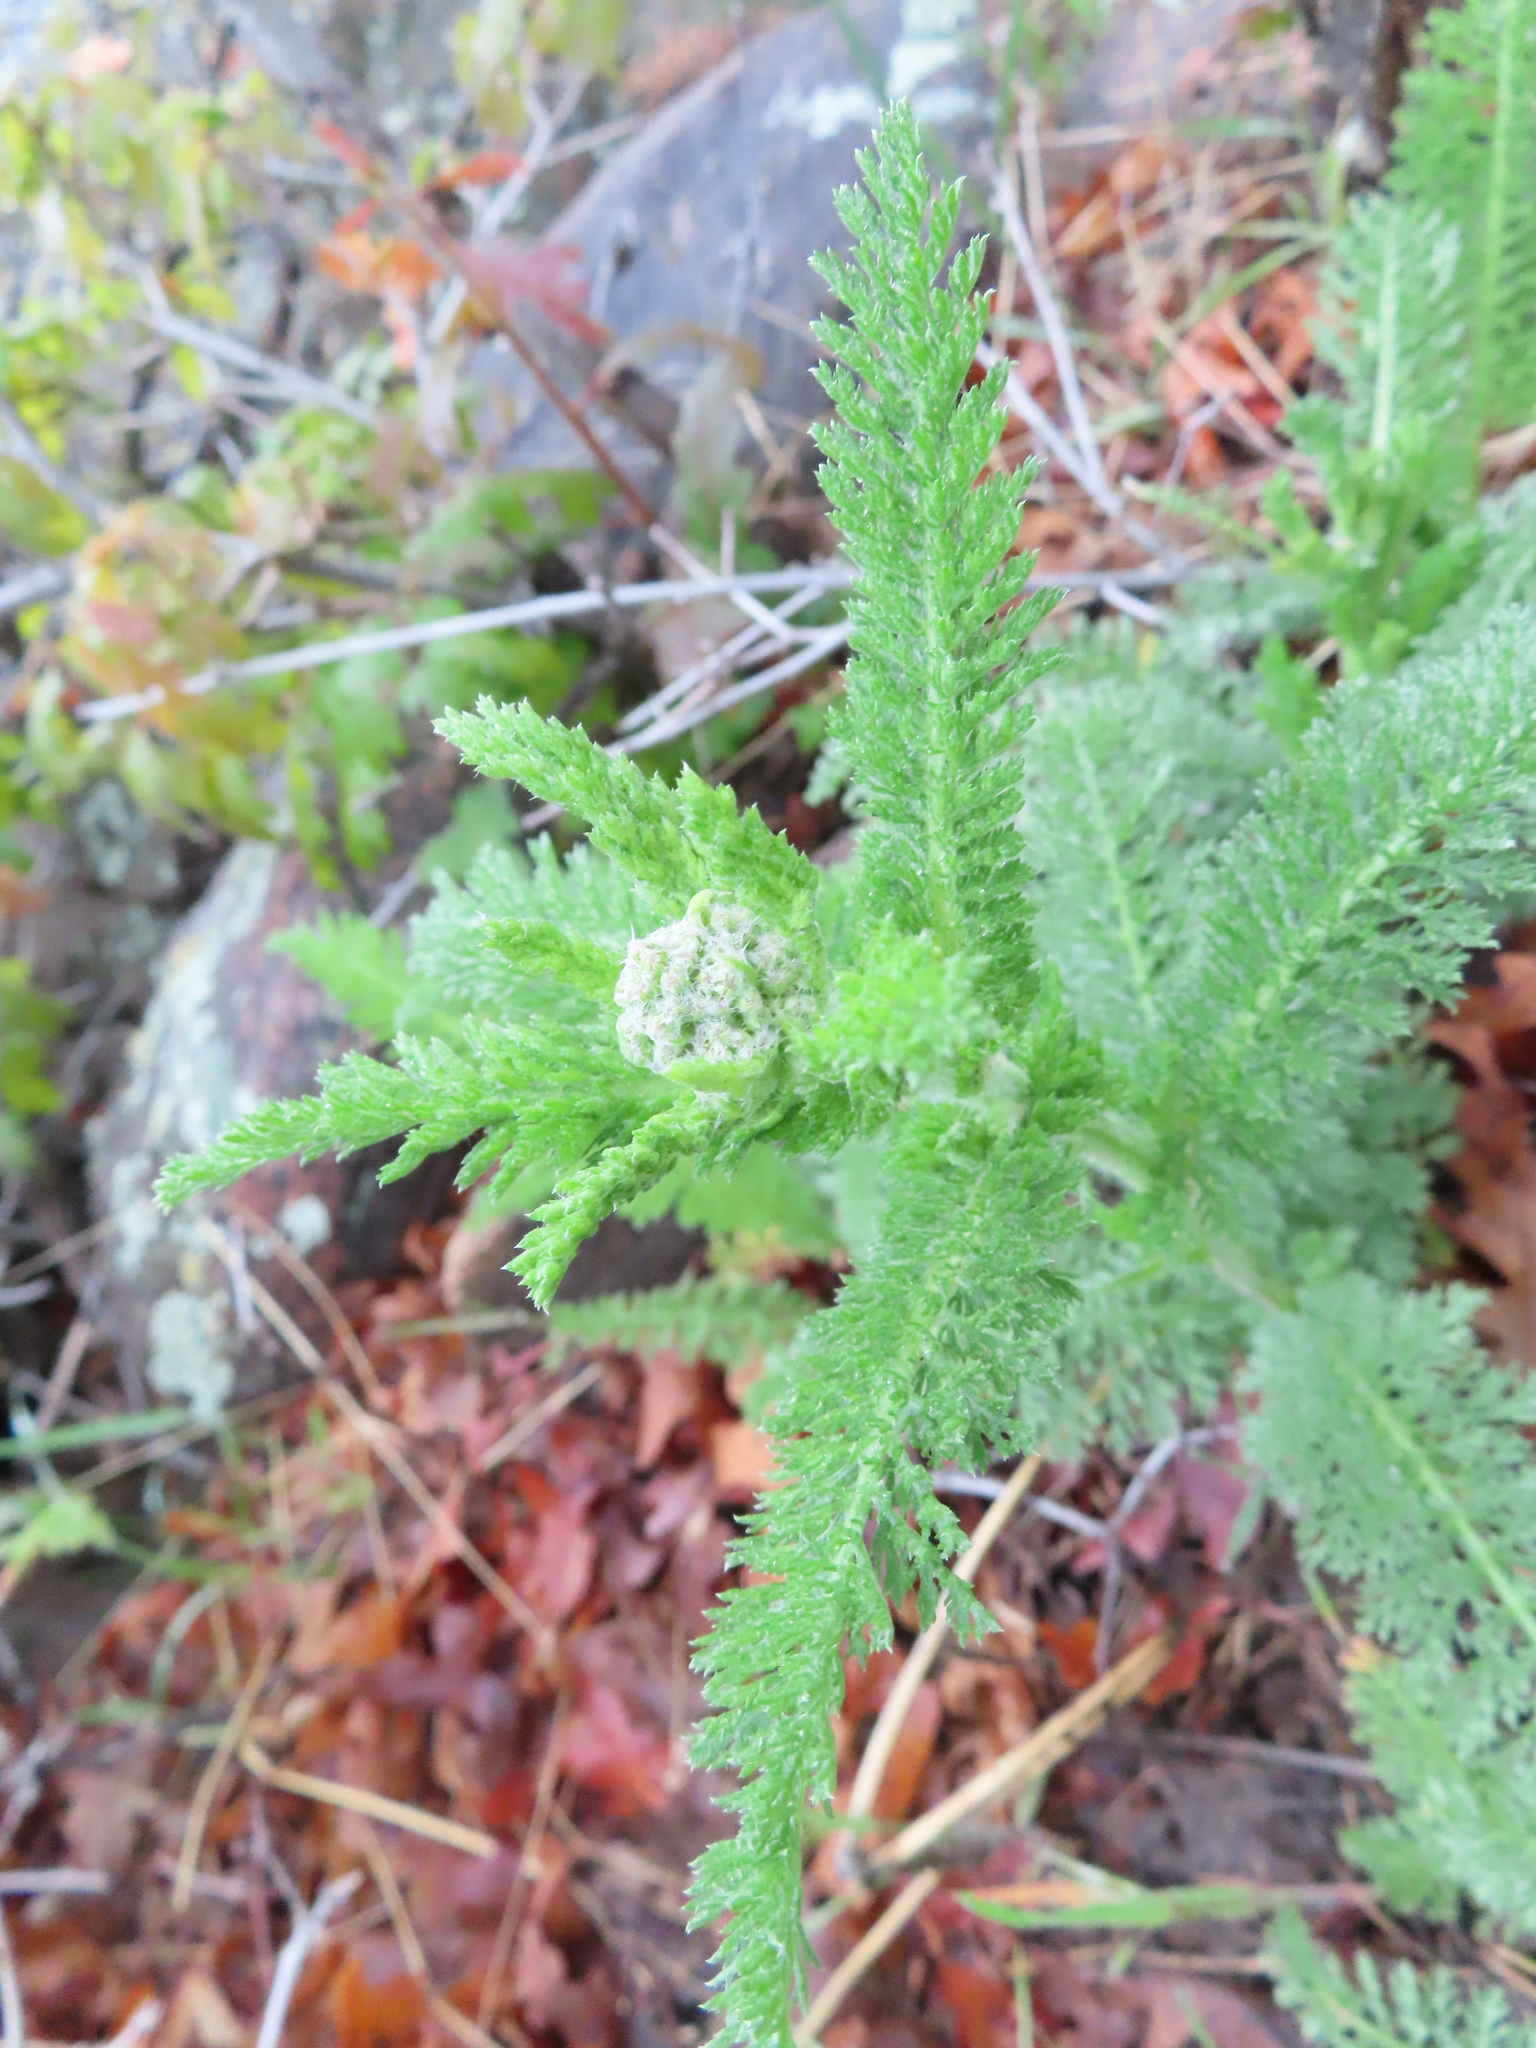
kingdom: Plantae
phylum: Tracheophyta
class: Magnoliopsida
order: Asterales
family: Asteraceae
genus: Achillea
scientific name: Achillea millefolium
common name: Yarrow
